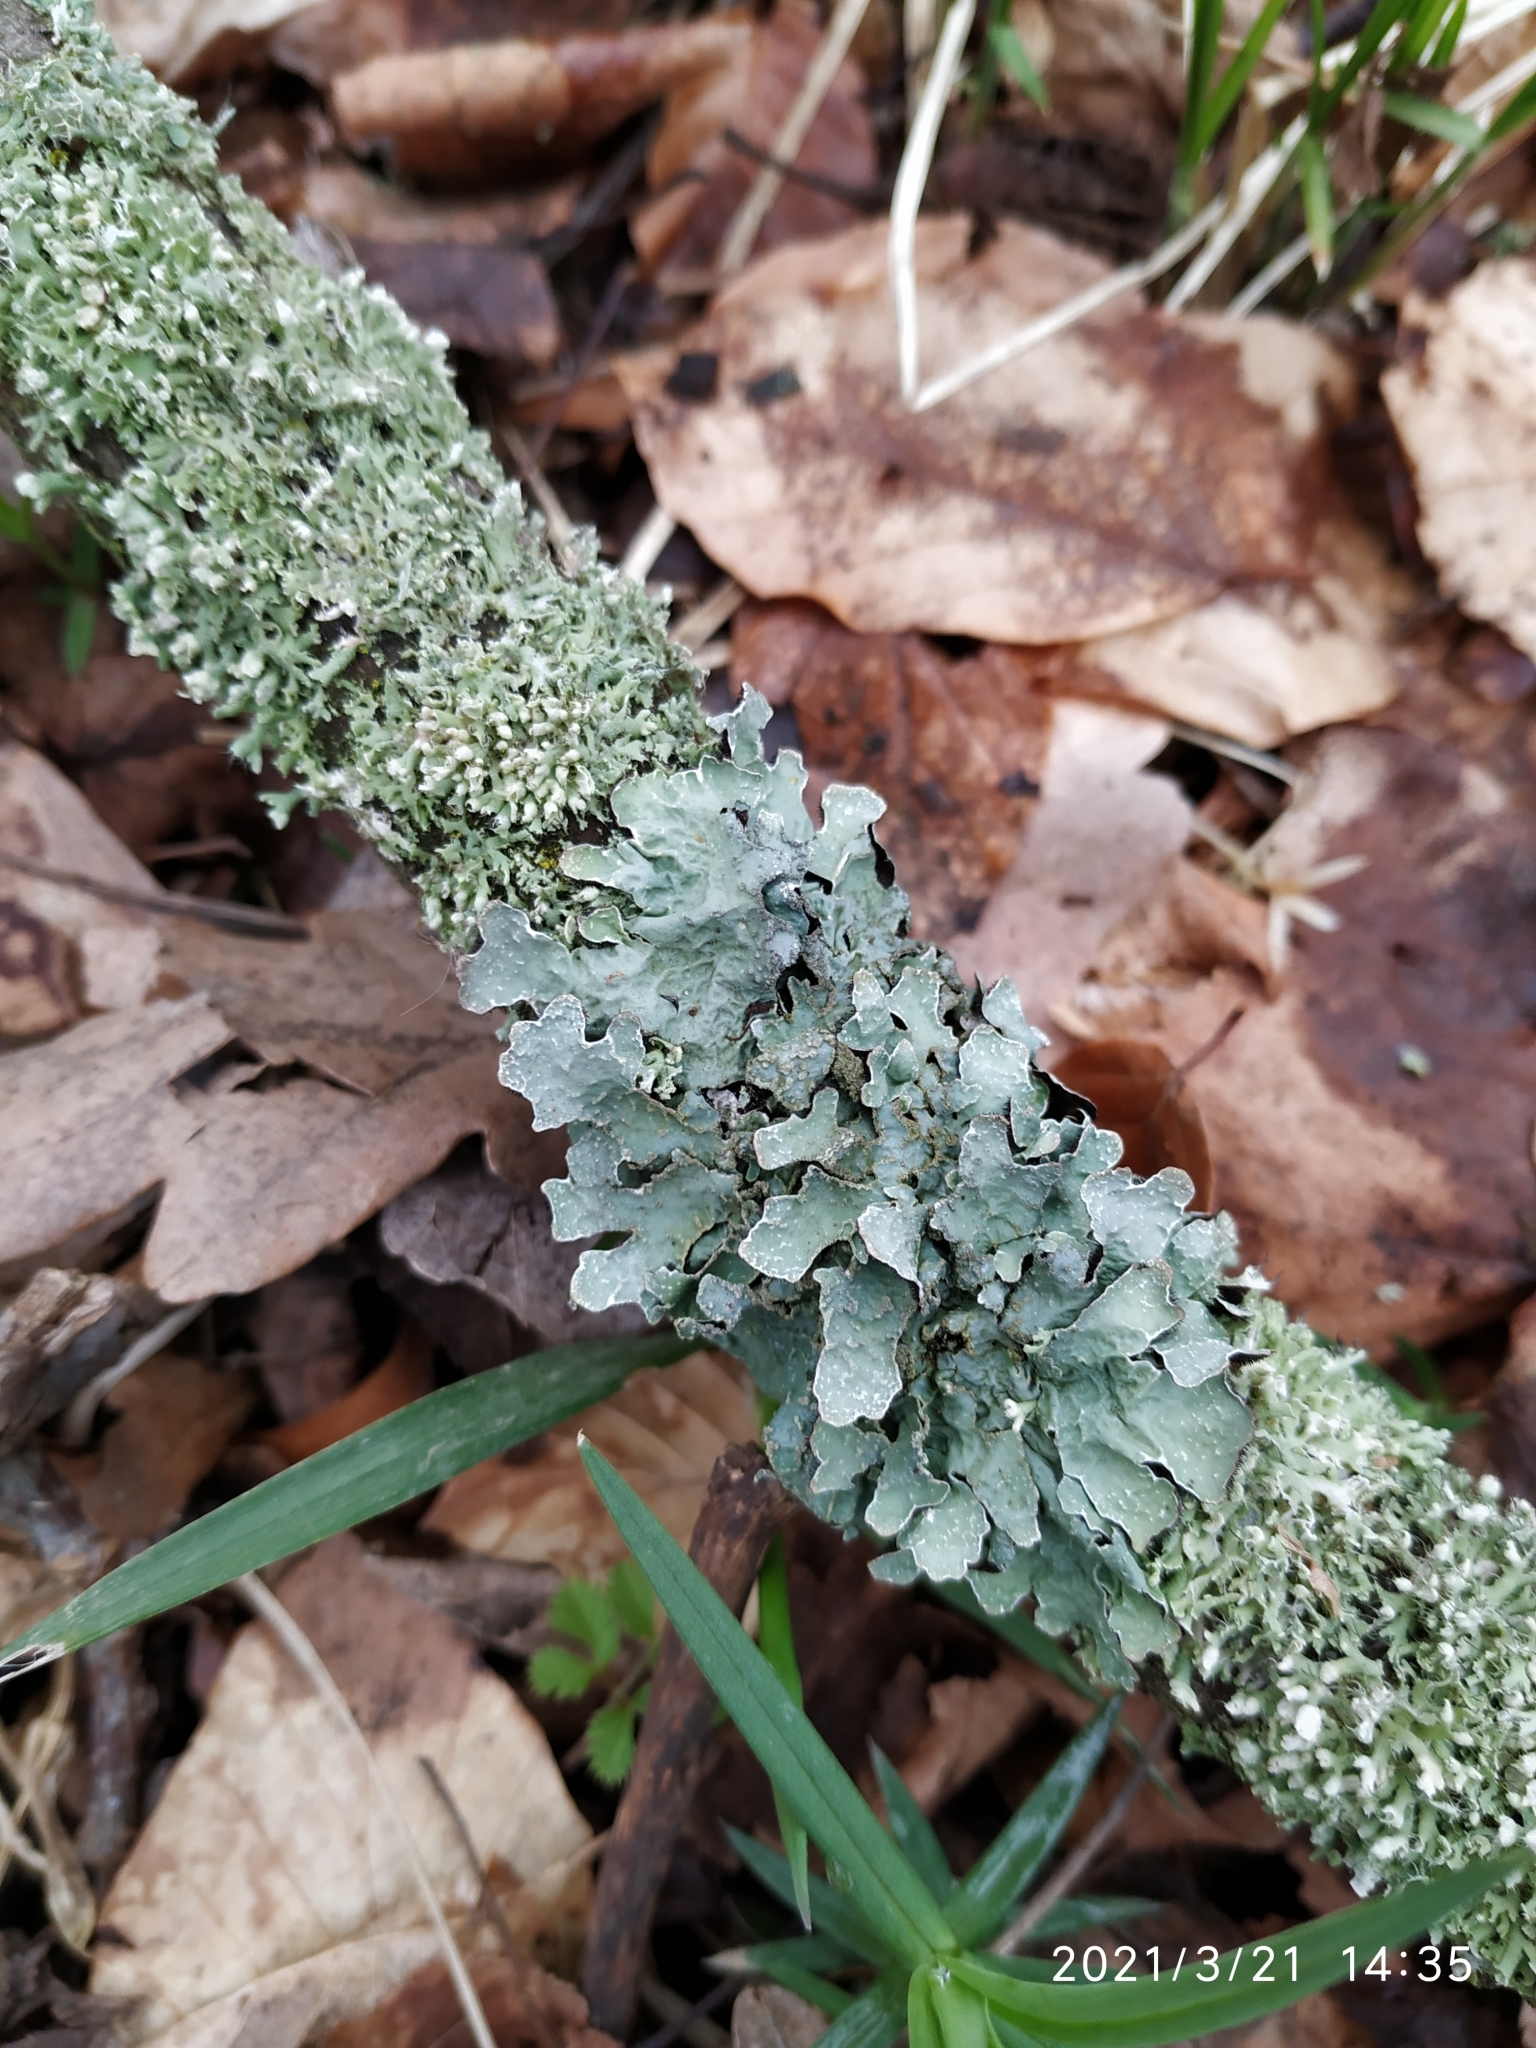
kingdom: Fungi
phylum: Ascomycota
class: Lecanoromycetes
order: Lecanorales
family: Parmeliaceae
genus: Parmelia
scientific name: Parmelia sulcata
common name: Netted shield lichen
